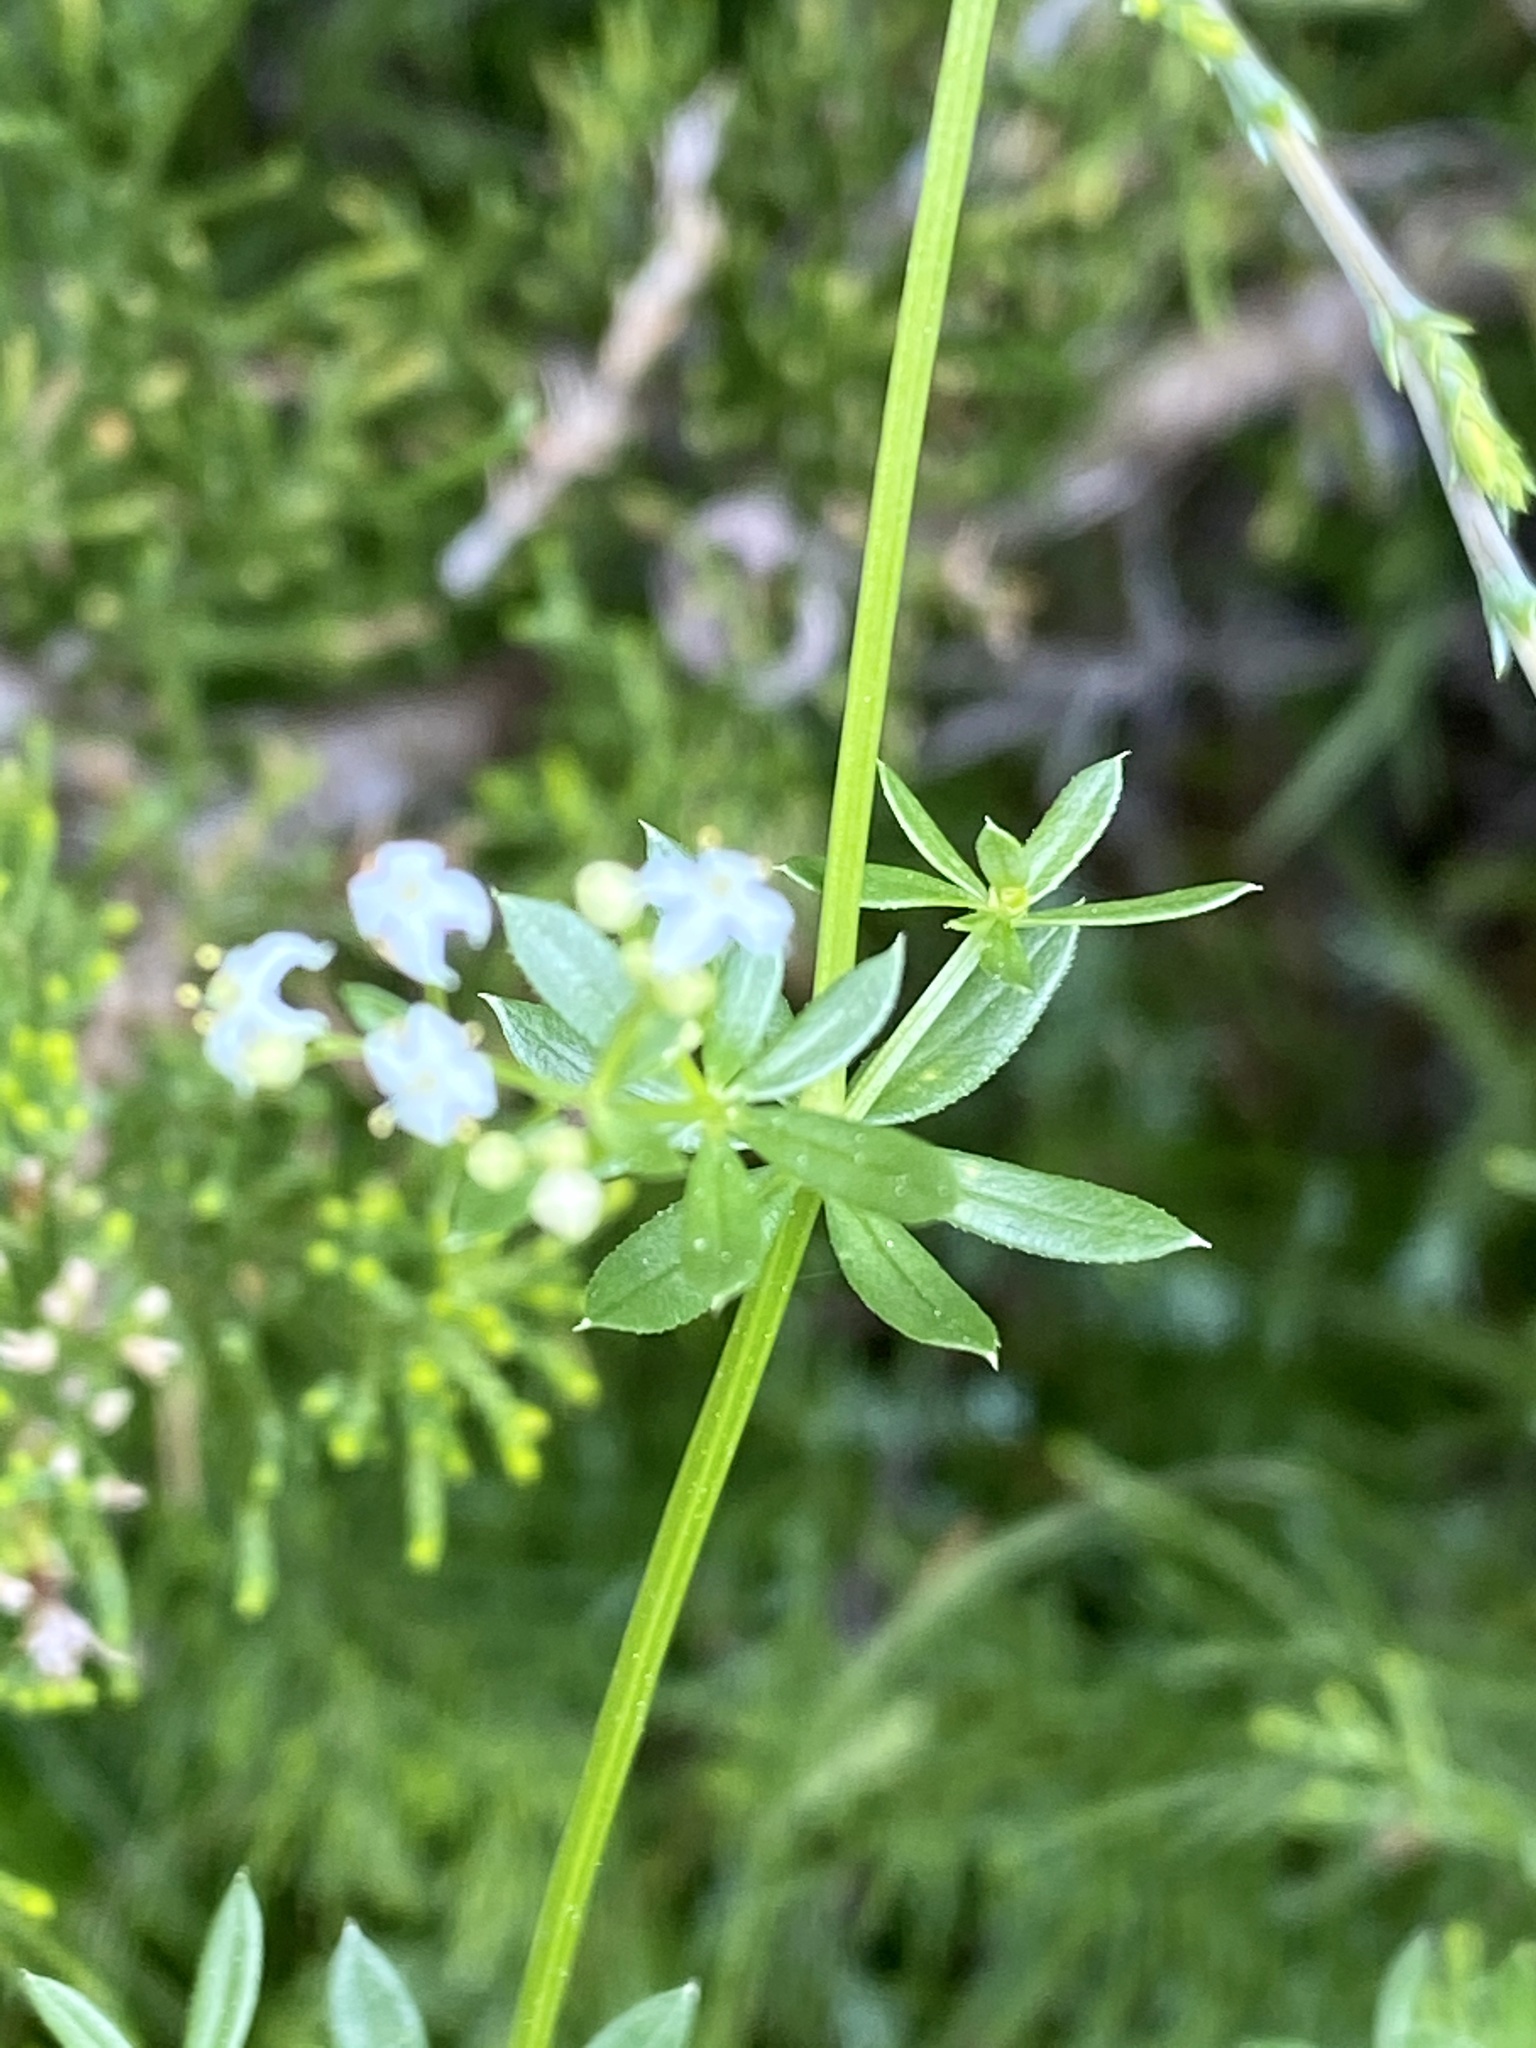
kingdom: Plantae
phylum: Tracheophyta
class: Magnoliopsida
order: Gentianales
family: Rubiaceae
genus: Galium
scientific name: Galium mollugo
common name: Hedge bedstraw
